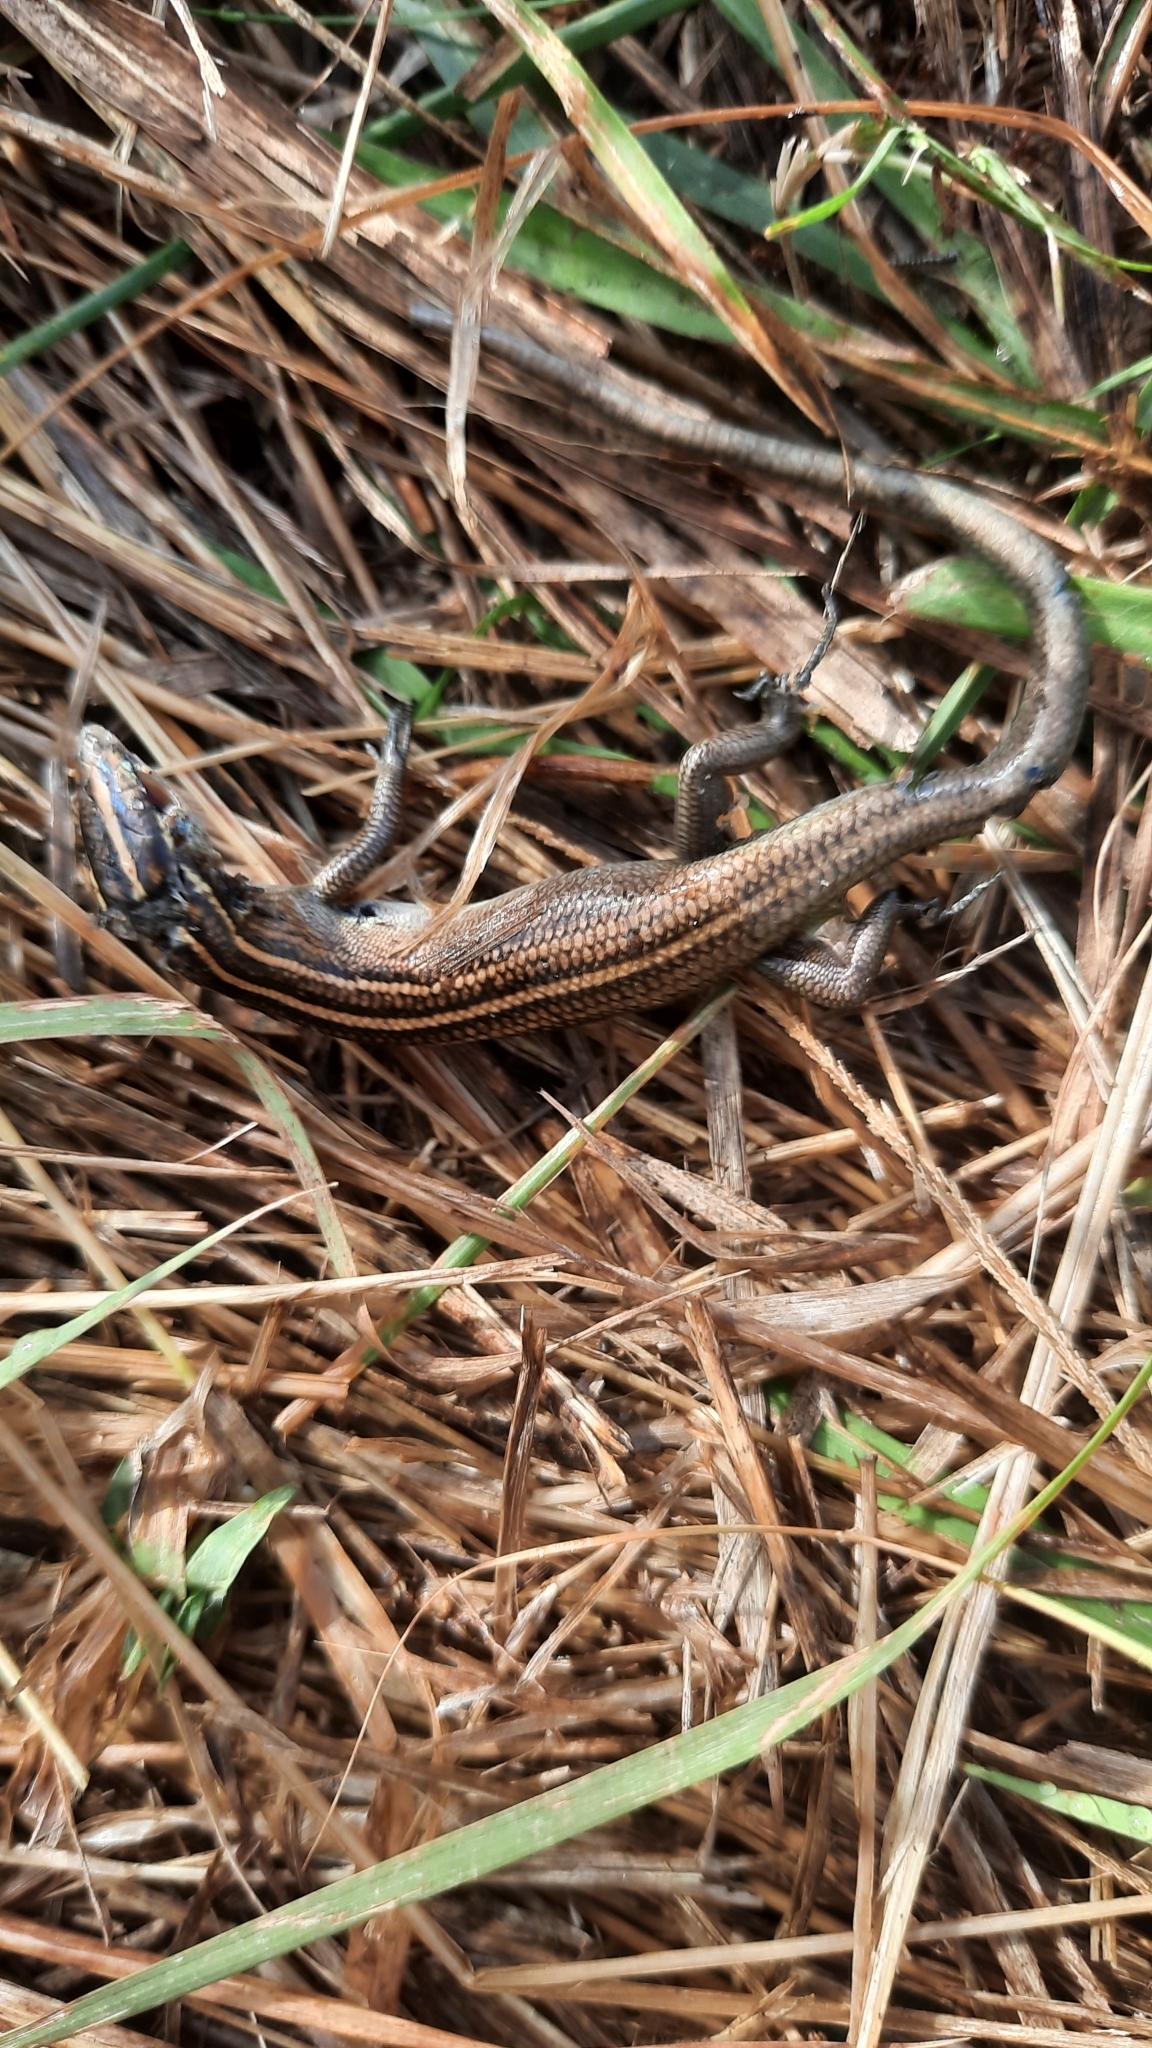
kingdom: Animalia
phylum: Chordata
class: Squamata
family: Scincidae
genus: Emoia
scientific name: Emoia cyanura
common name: Copper-tailed skink
